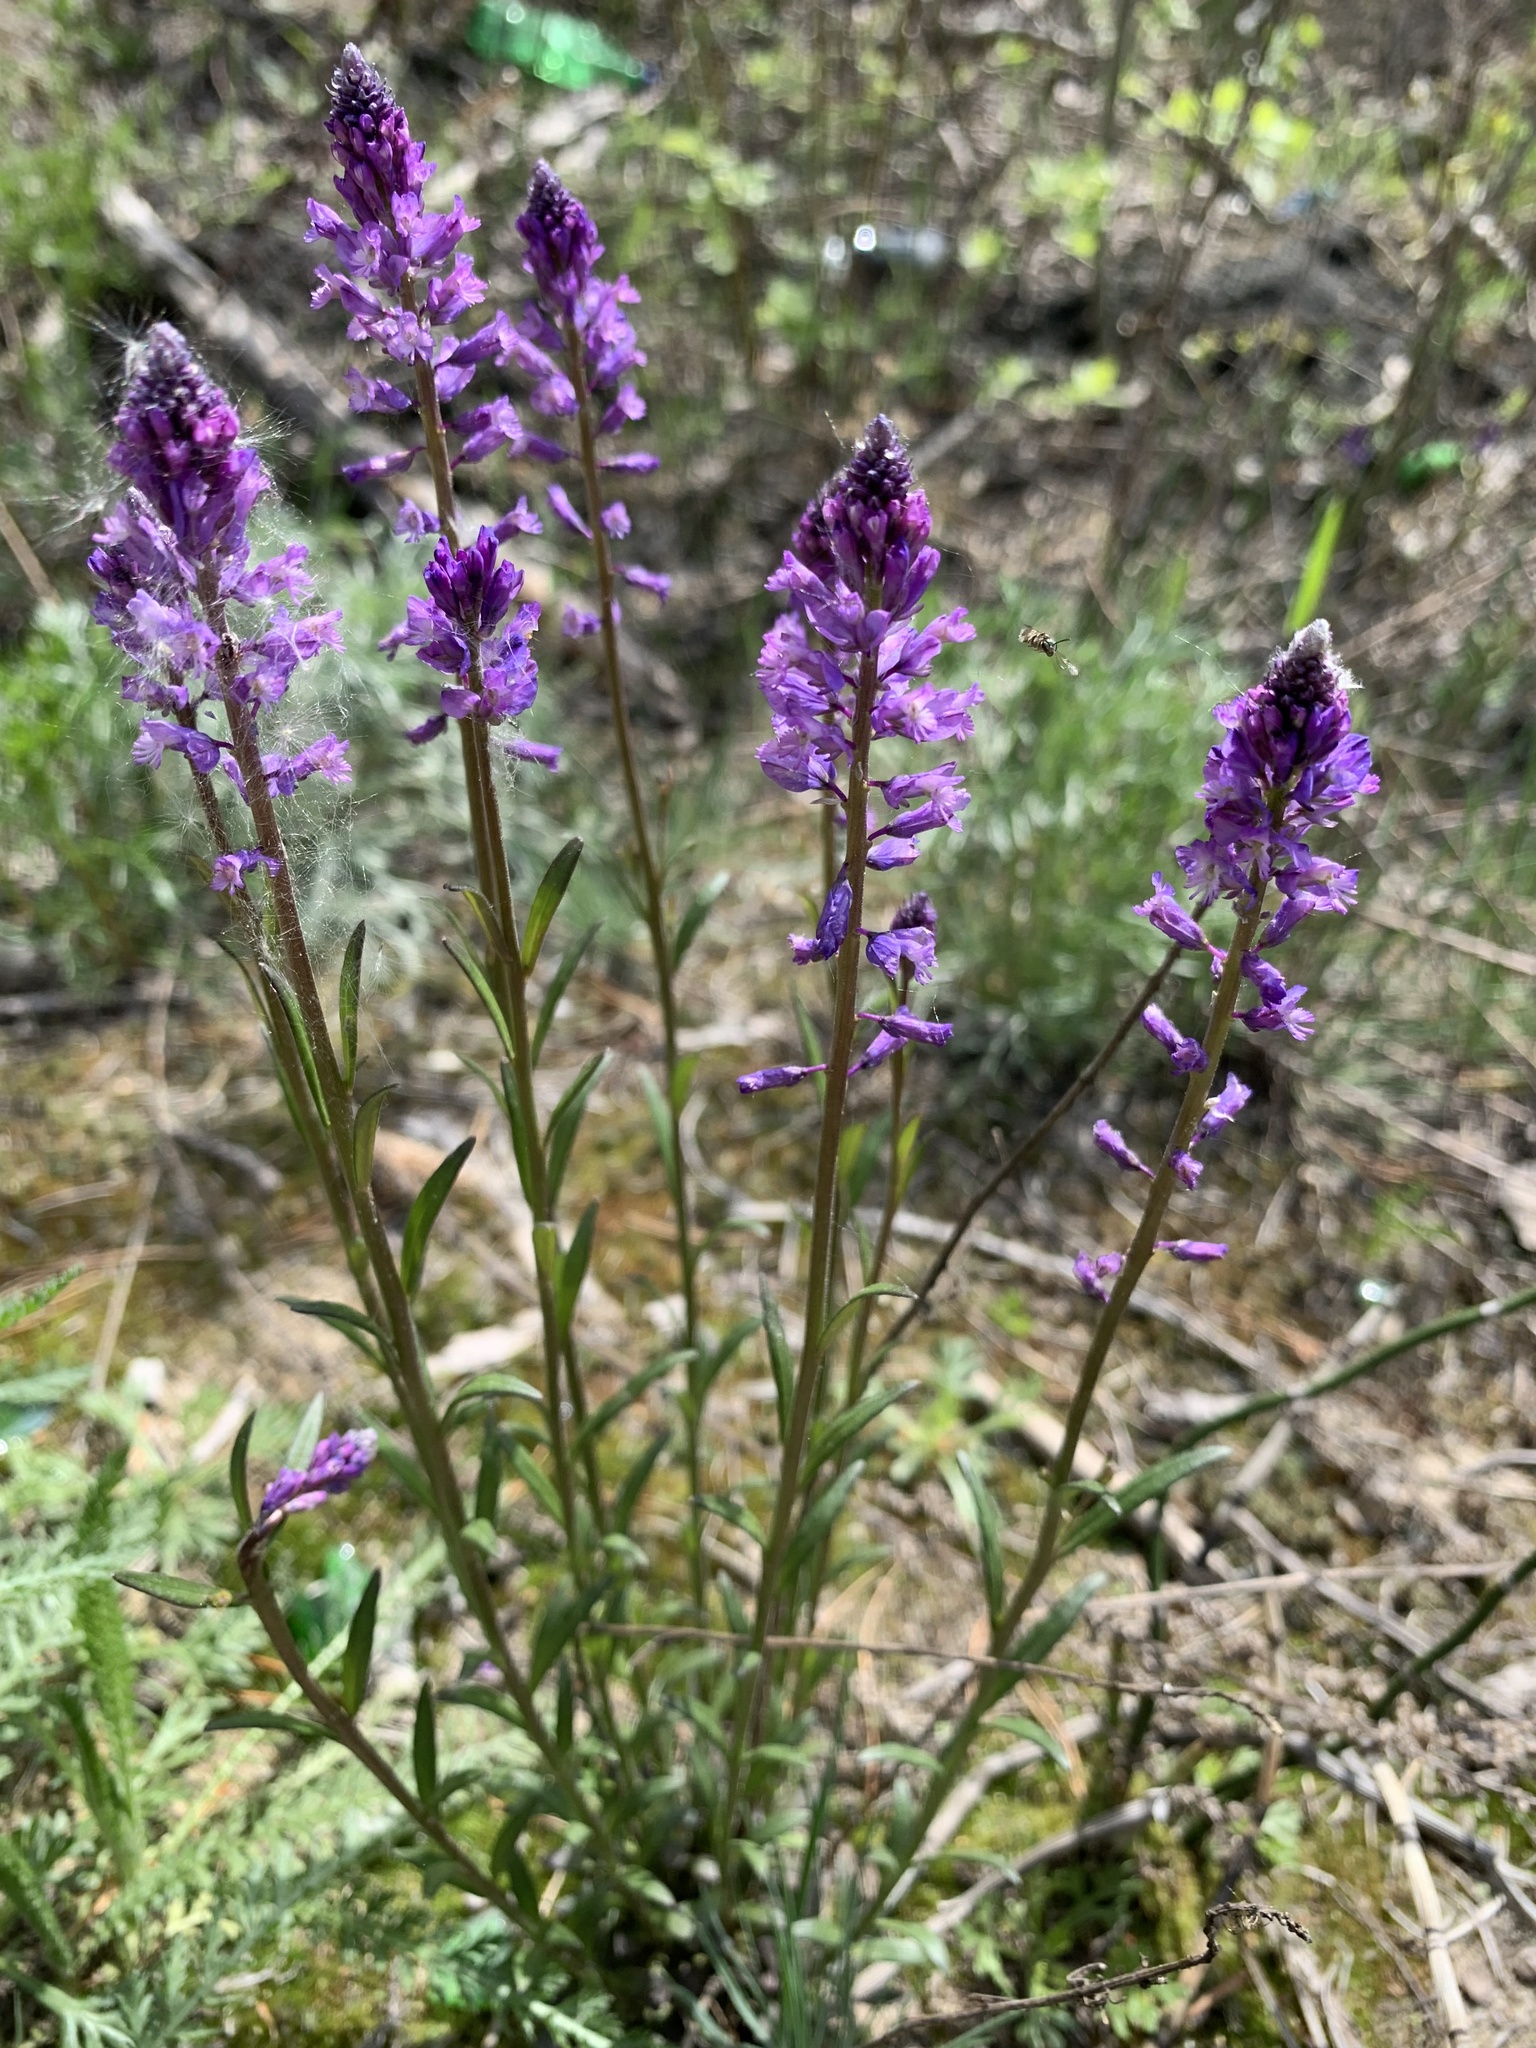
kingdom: Plantae
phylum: Tracheophyta
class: Magnoliopsida
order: Fabales
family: Polygalaceae
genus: Polygala
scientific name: Polygala comosa
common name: Tufted milkwort
